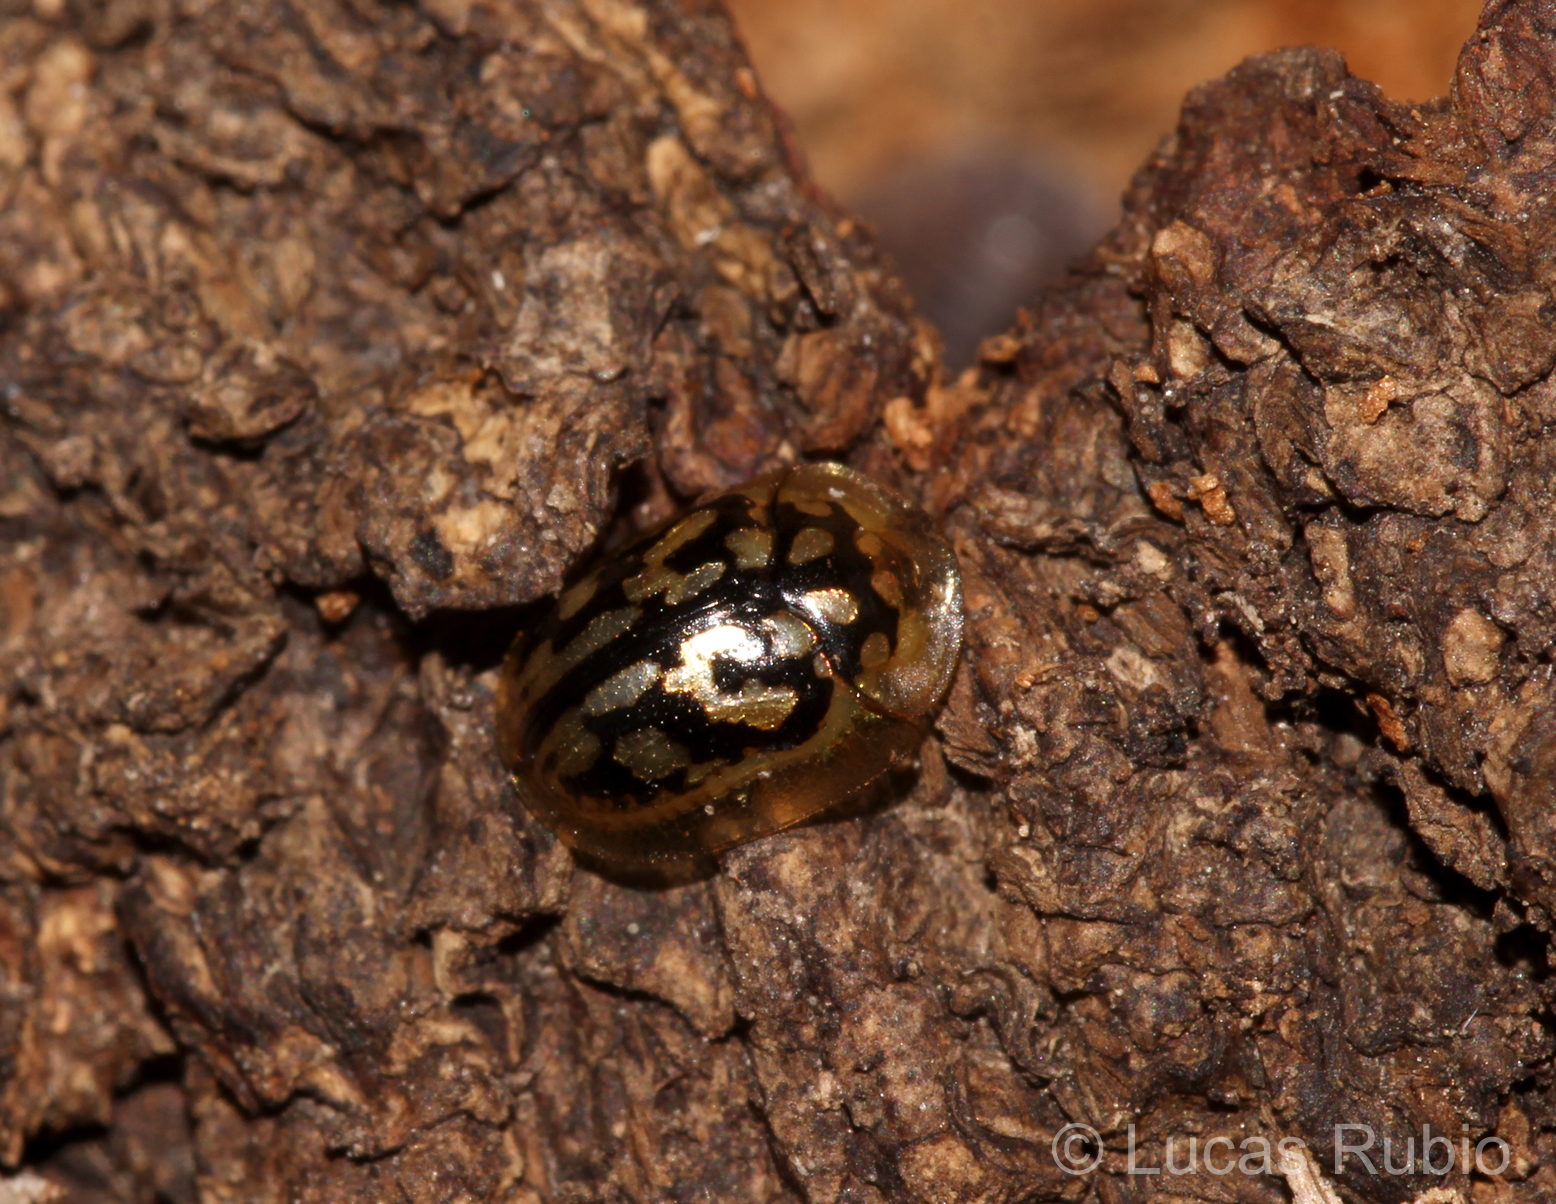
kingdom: Animalia
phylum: Arthropoda
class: Insecta
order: Coleoptera
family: Chrysomelidae
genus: Aporocassida
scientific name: Aporocassida graphica
